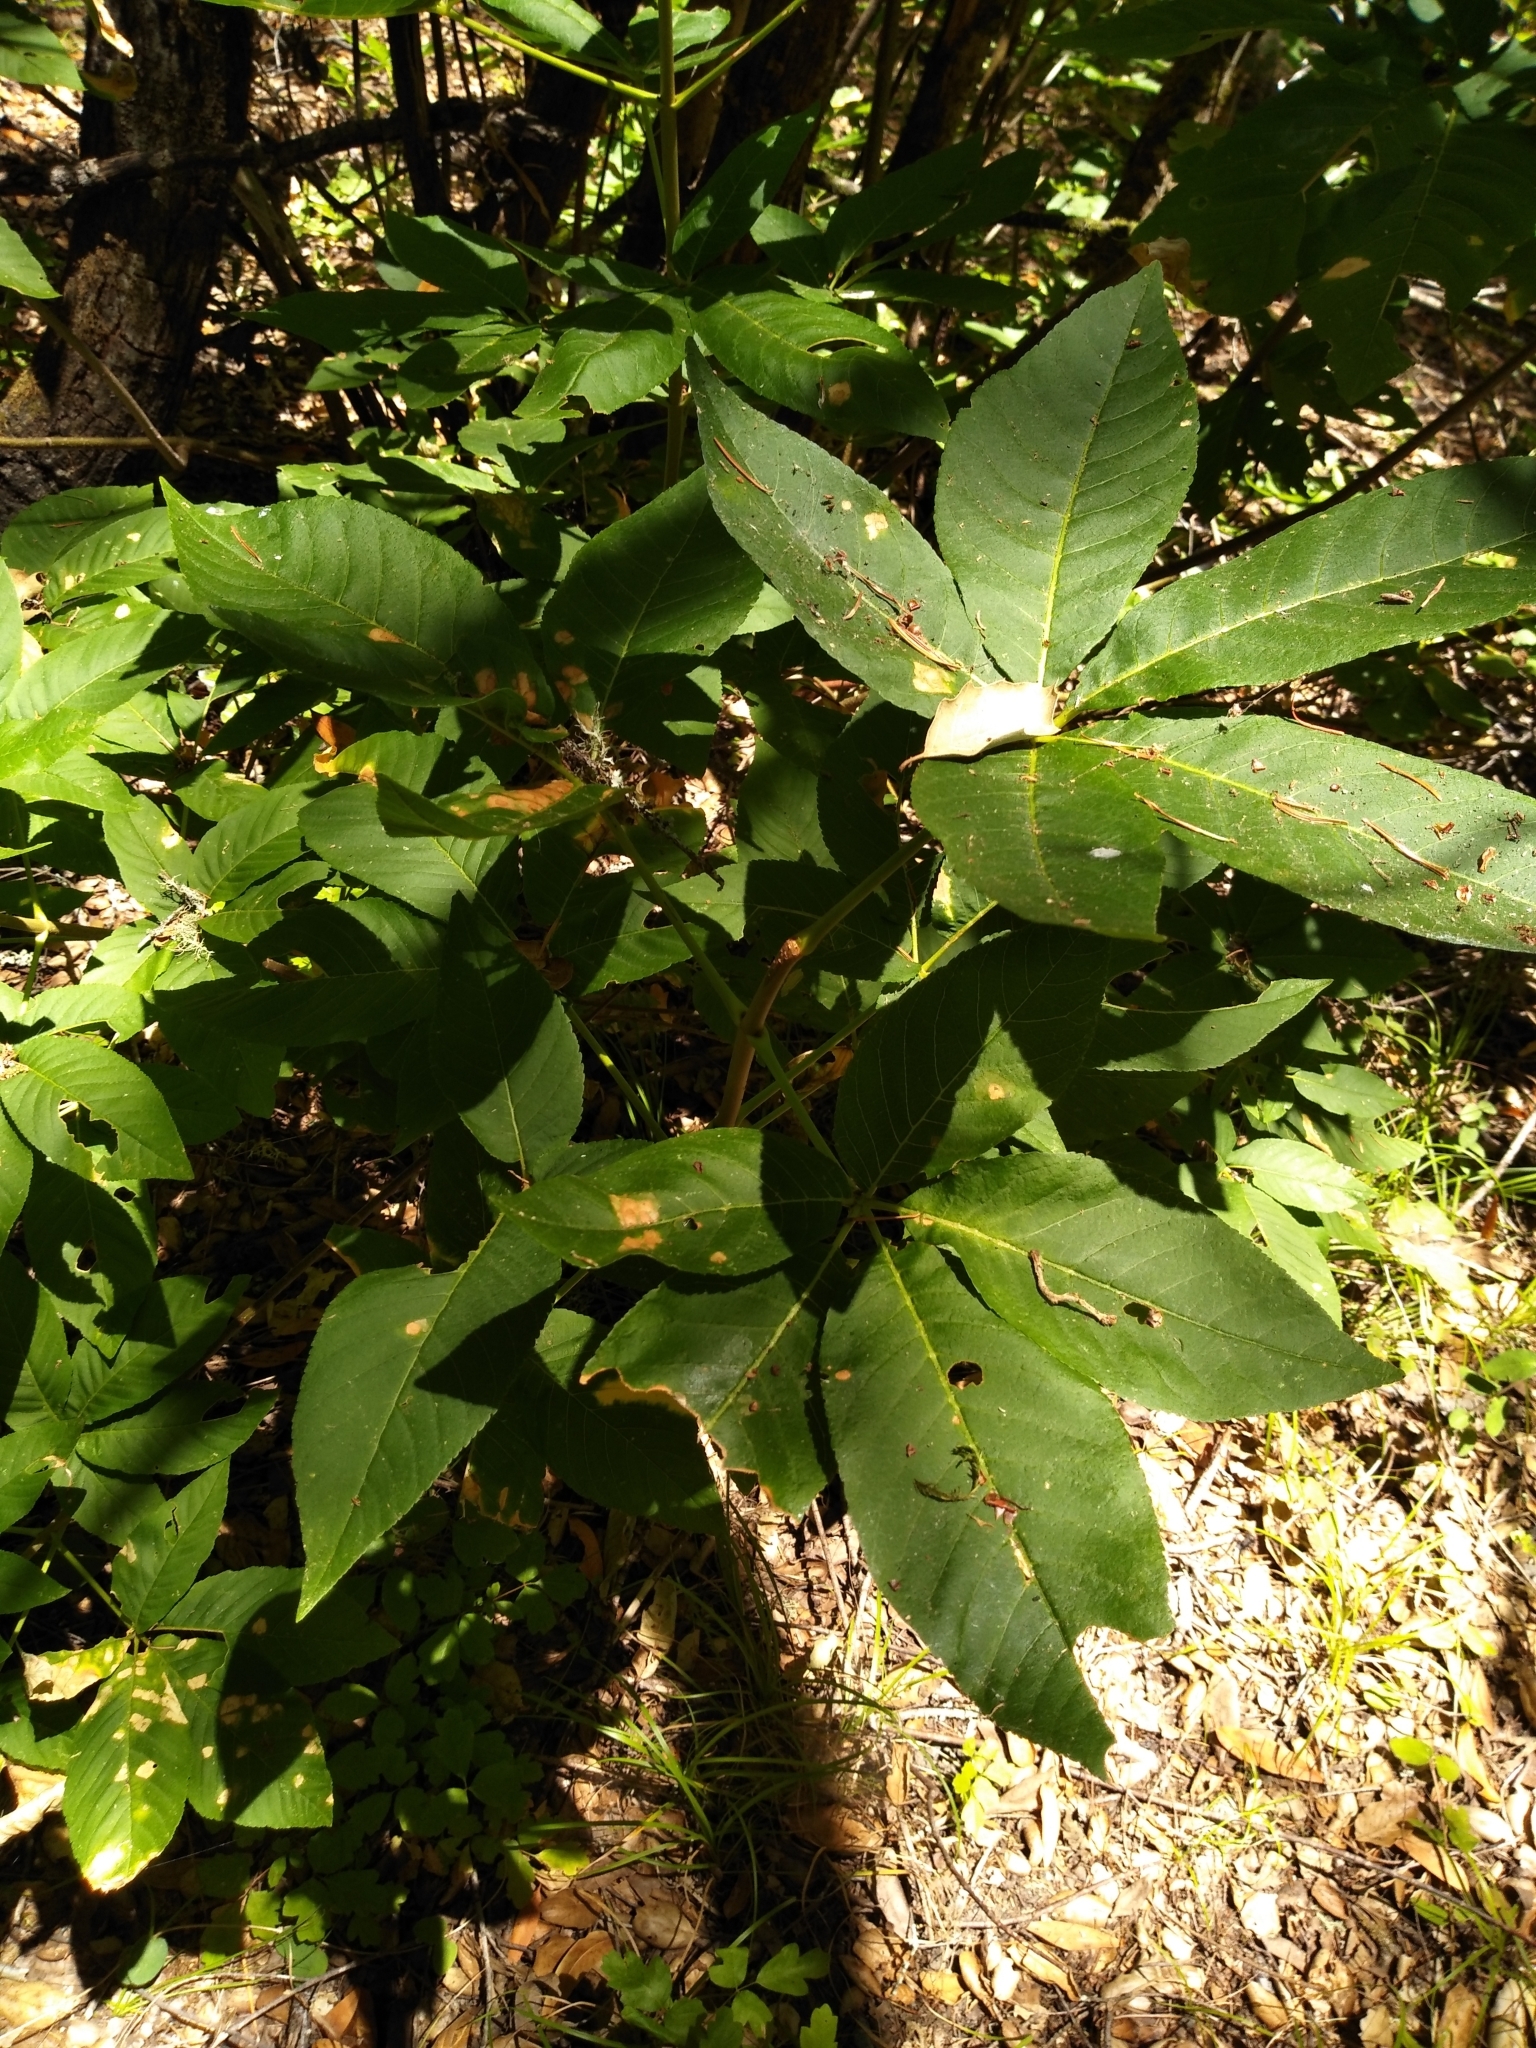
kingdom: Plantae
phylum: Tracheophyta
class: Magnoliopsida
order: Sapindales
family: Sapindaceae
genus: Aesculus
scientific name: Aesculus californica
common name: California buckeye
